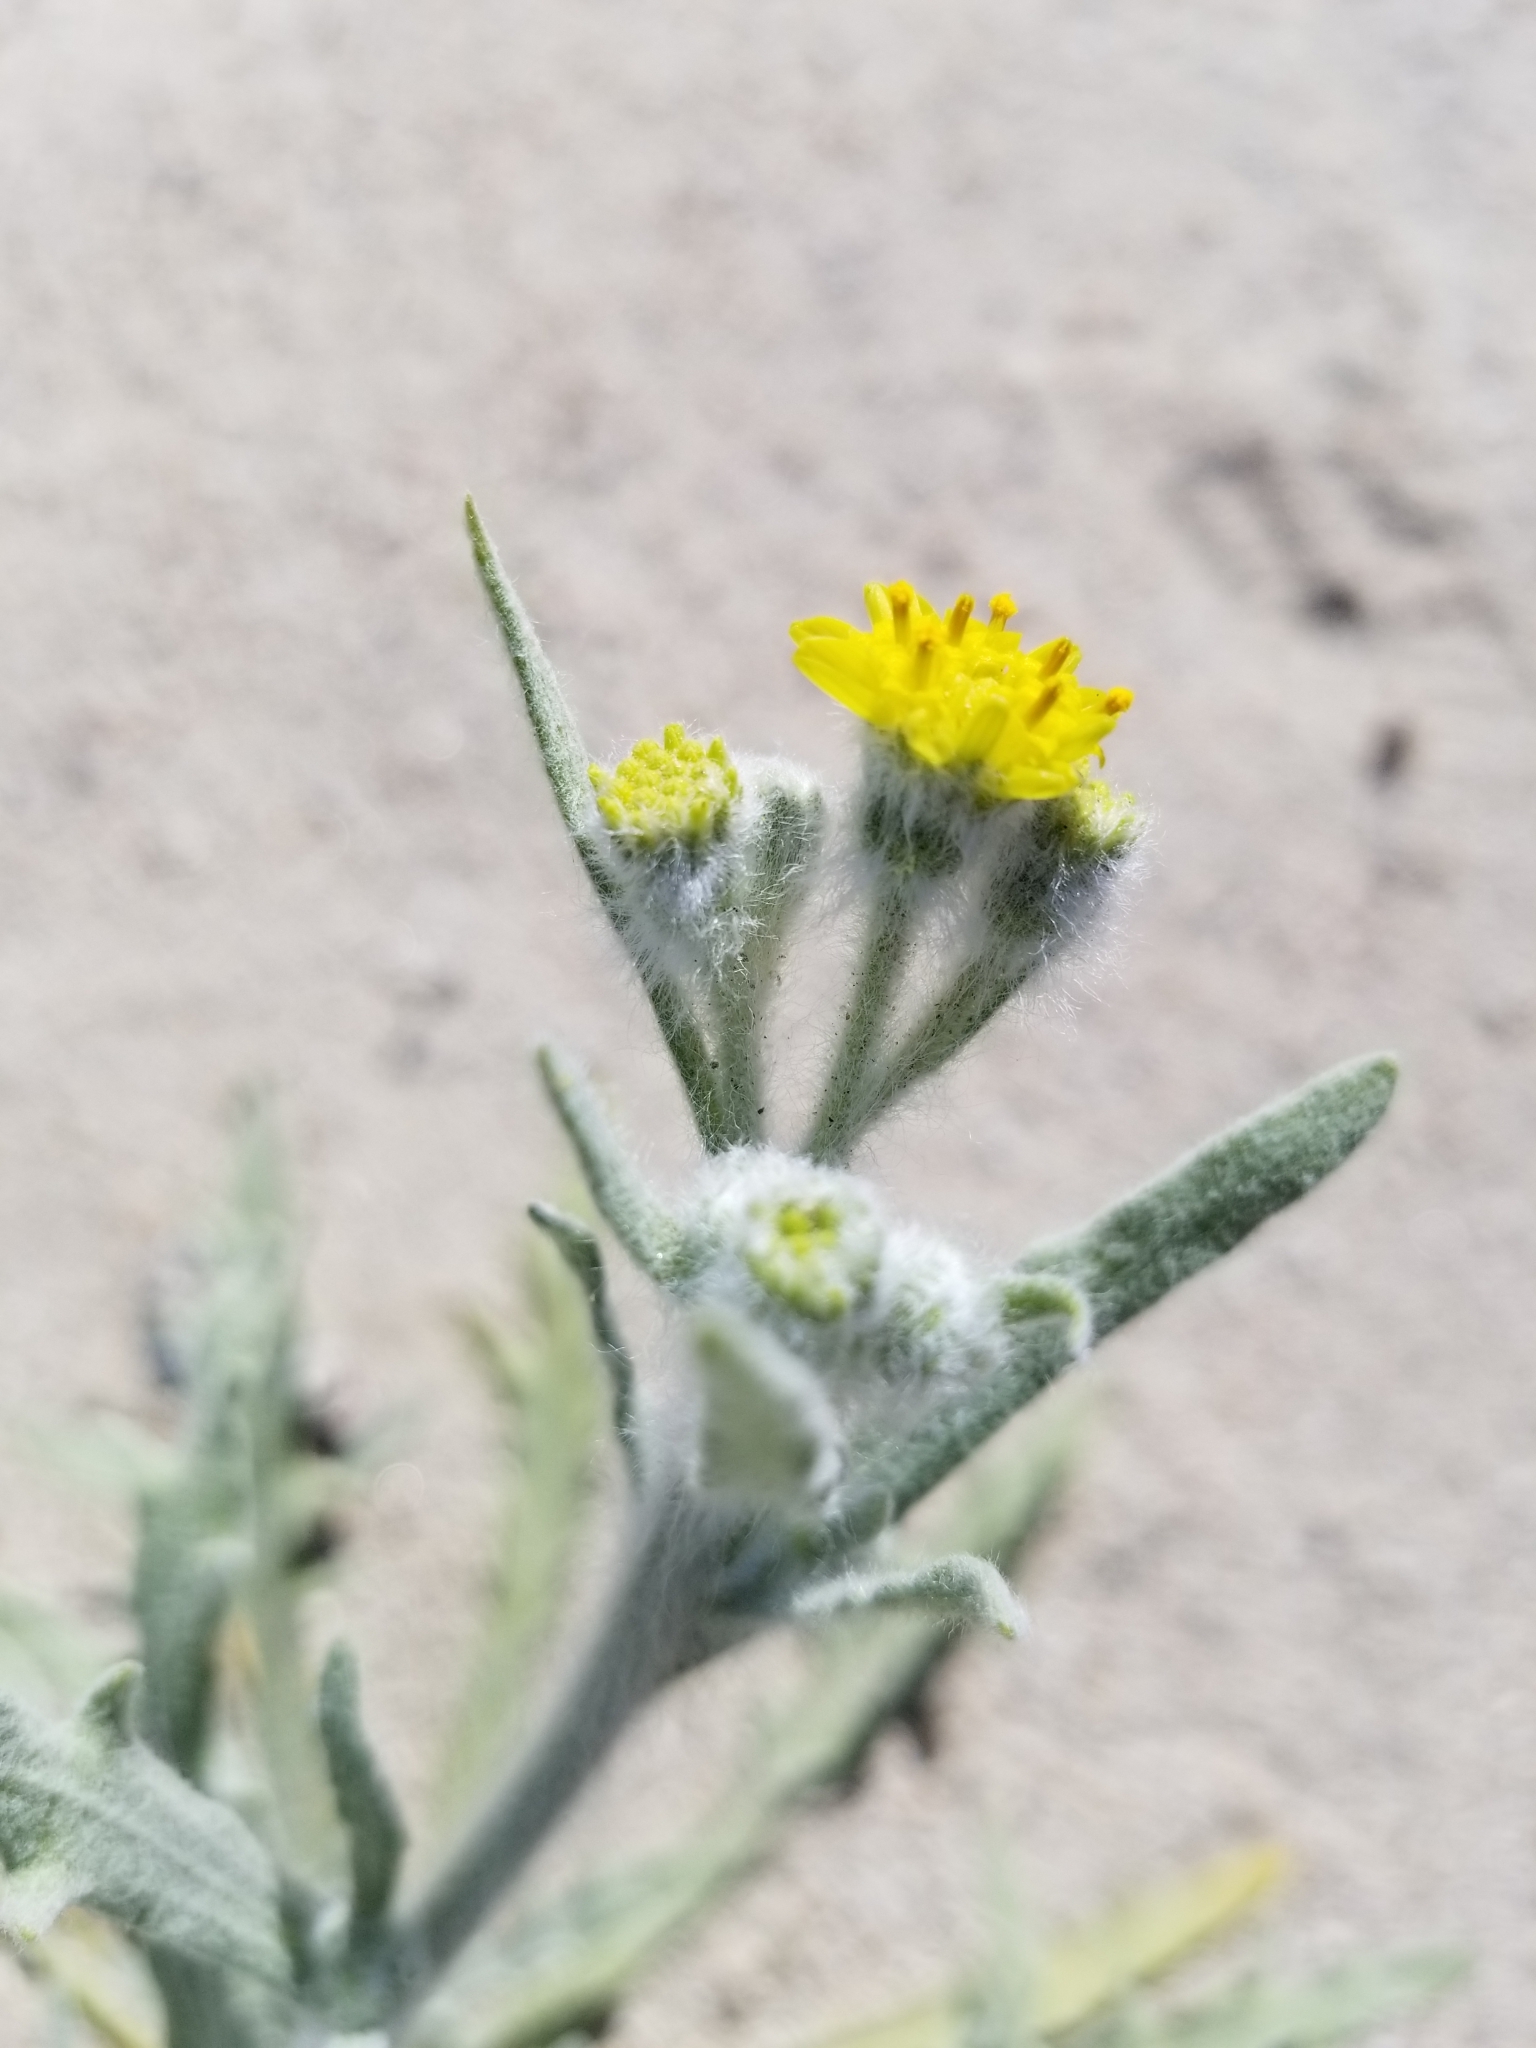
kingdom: Plantae
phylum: Tracheophyta
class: Magnoliopsida
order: Asterales
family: Asteraceae
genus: Baileya
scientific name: Baileya pauciradiata
